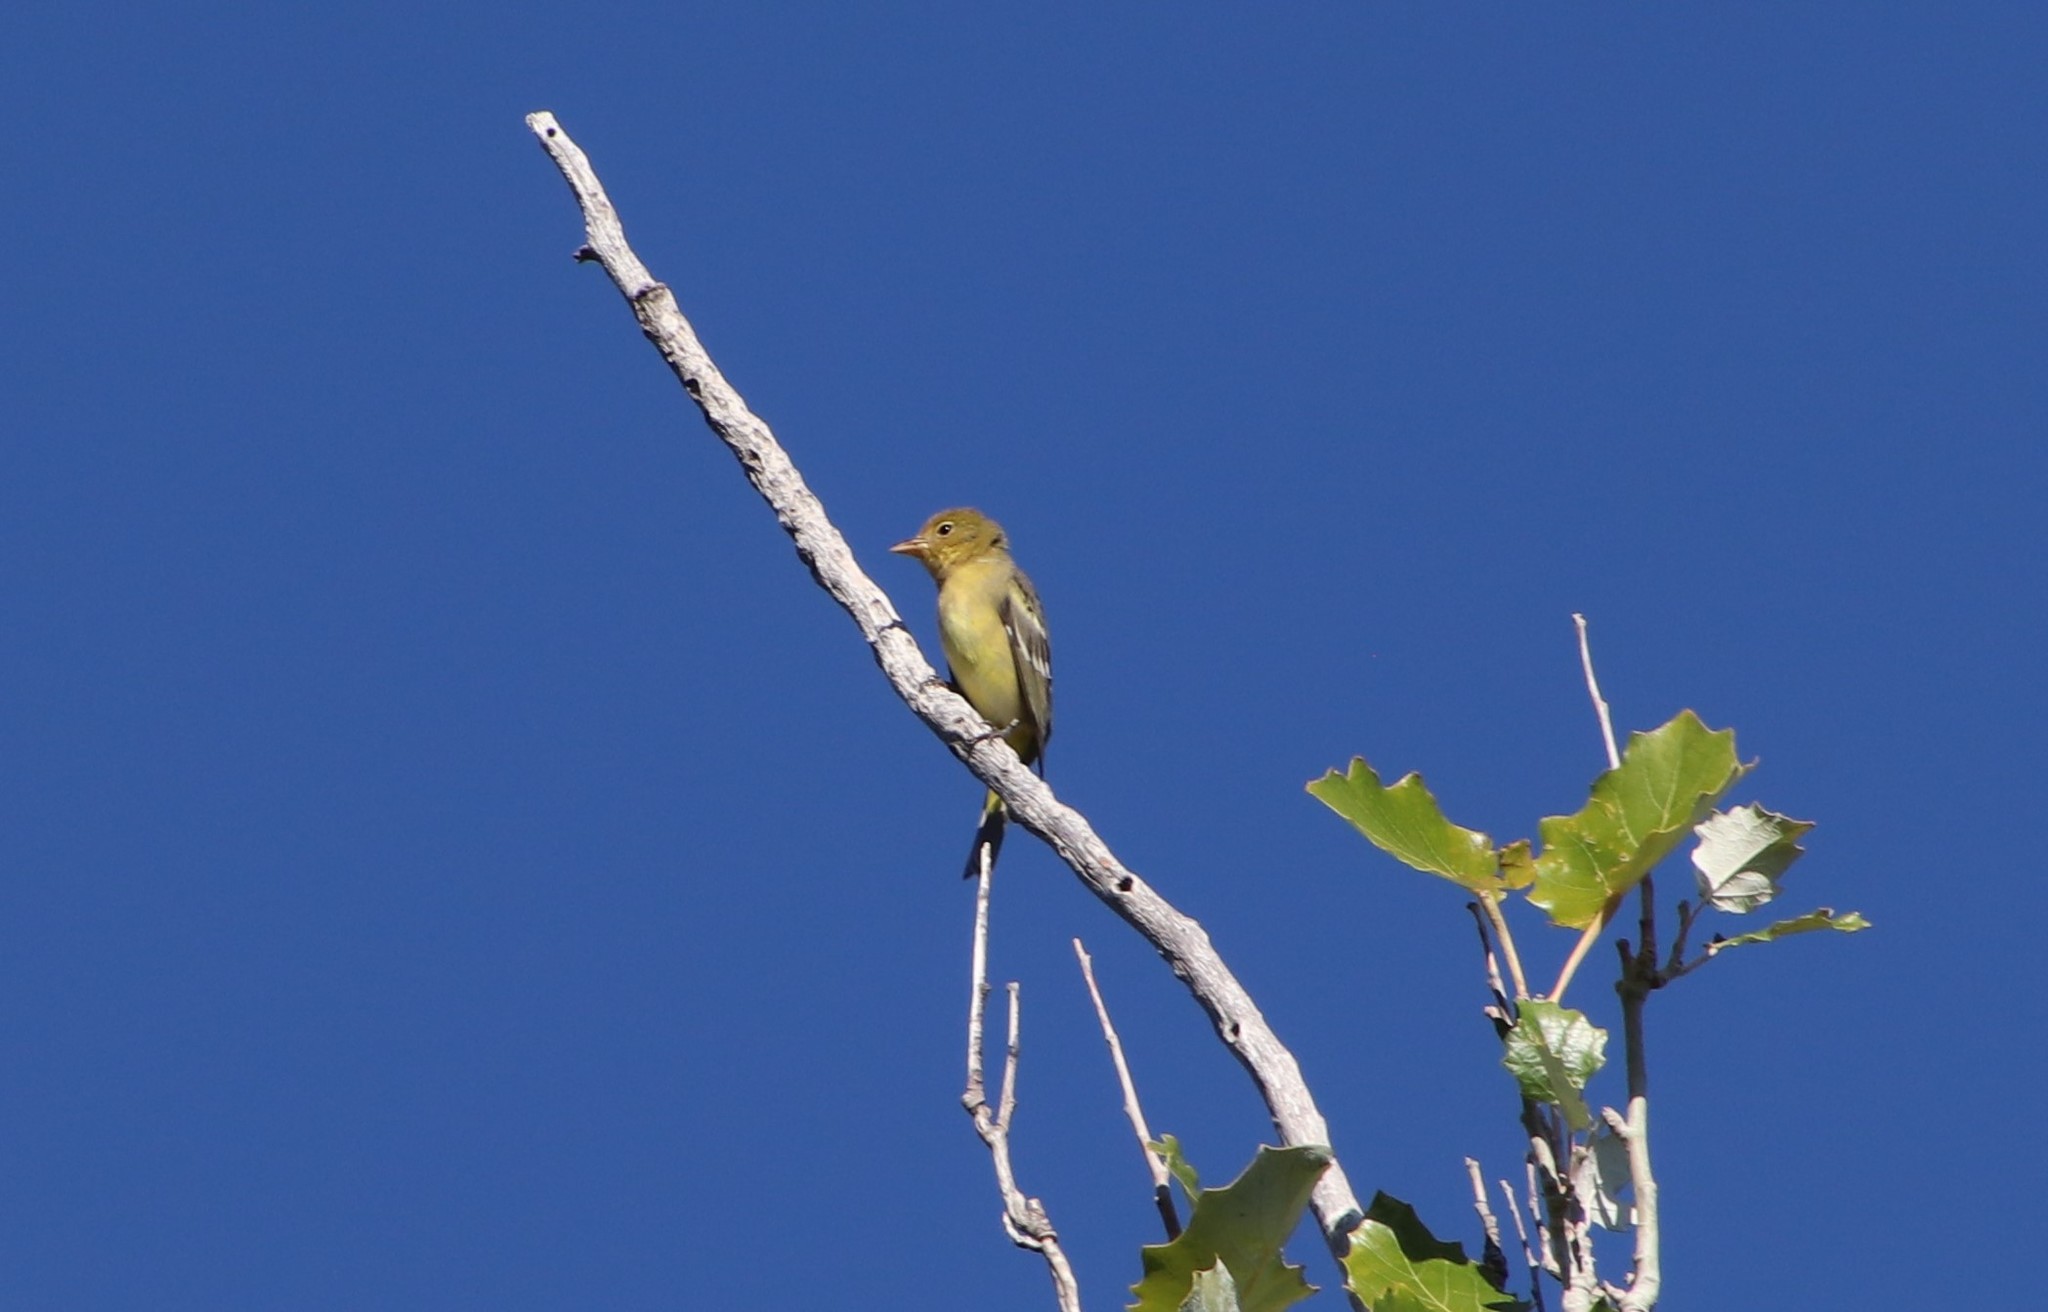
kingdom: Animalia
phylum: Chordata
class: Aves
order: Passeriformes
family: Cardinalidae
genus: Piranga
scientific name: Piranga ludoviciana
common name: Western tanager
